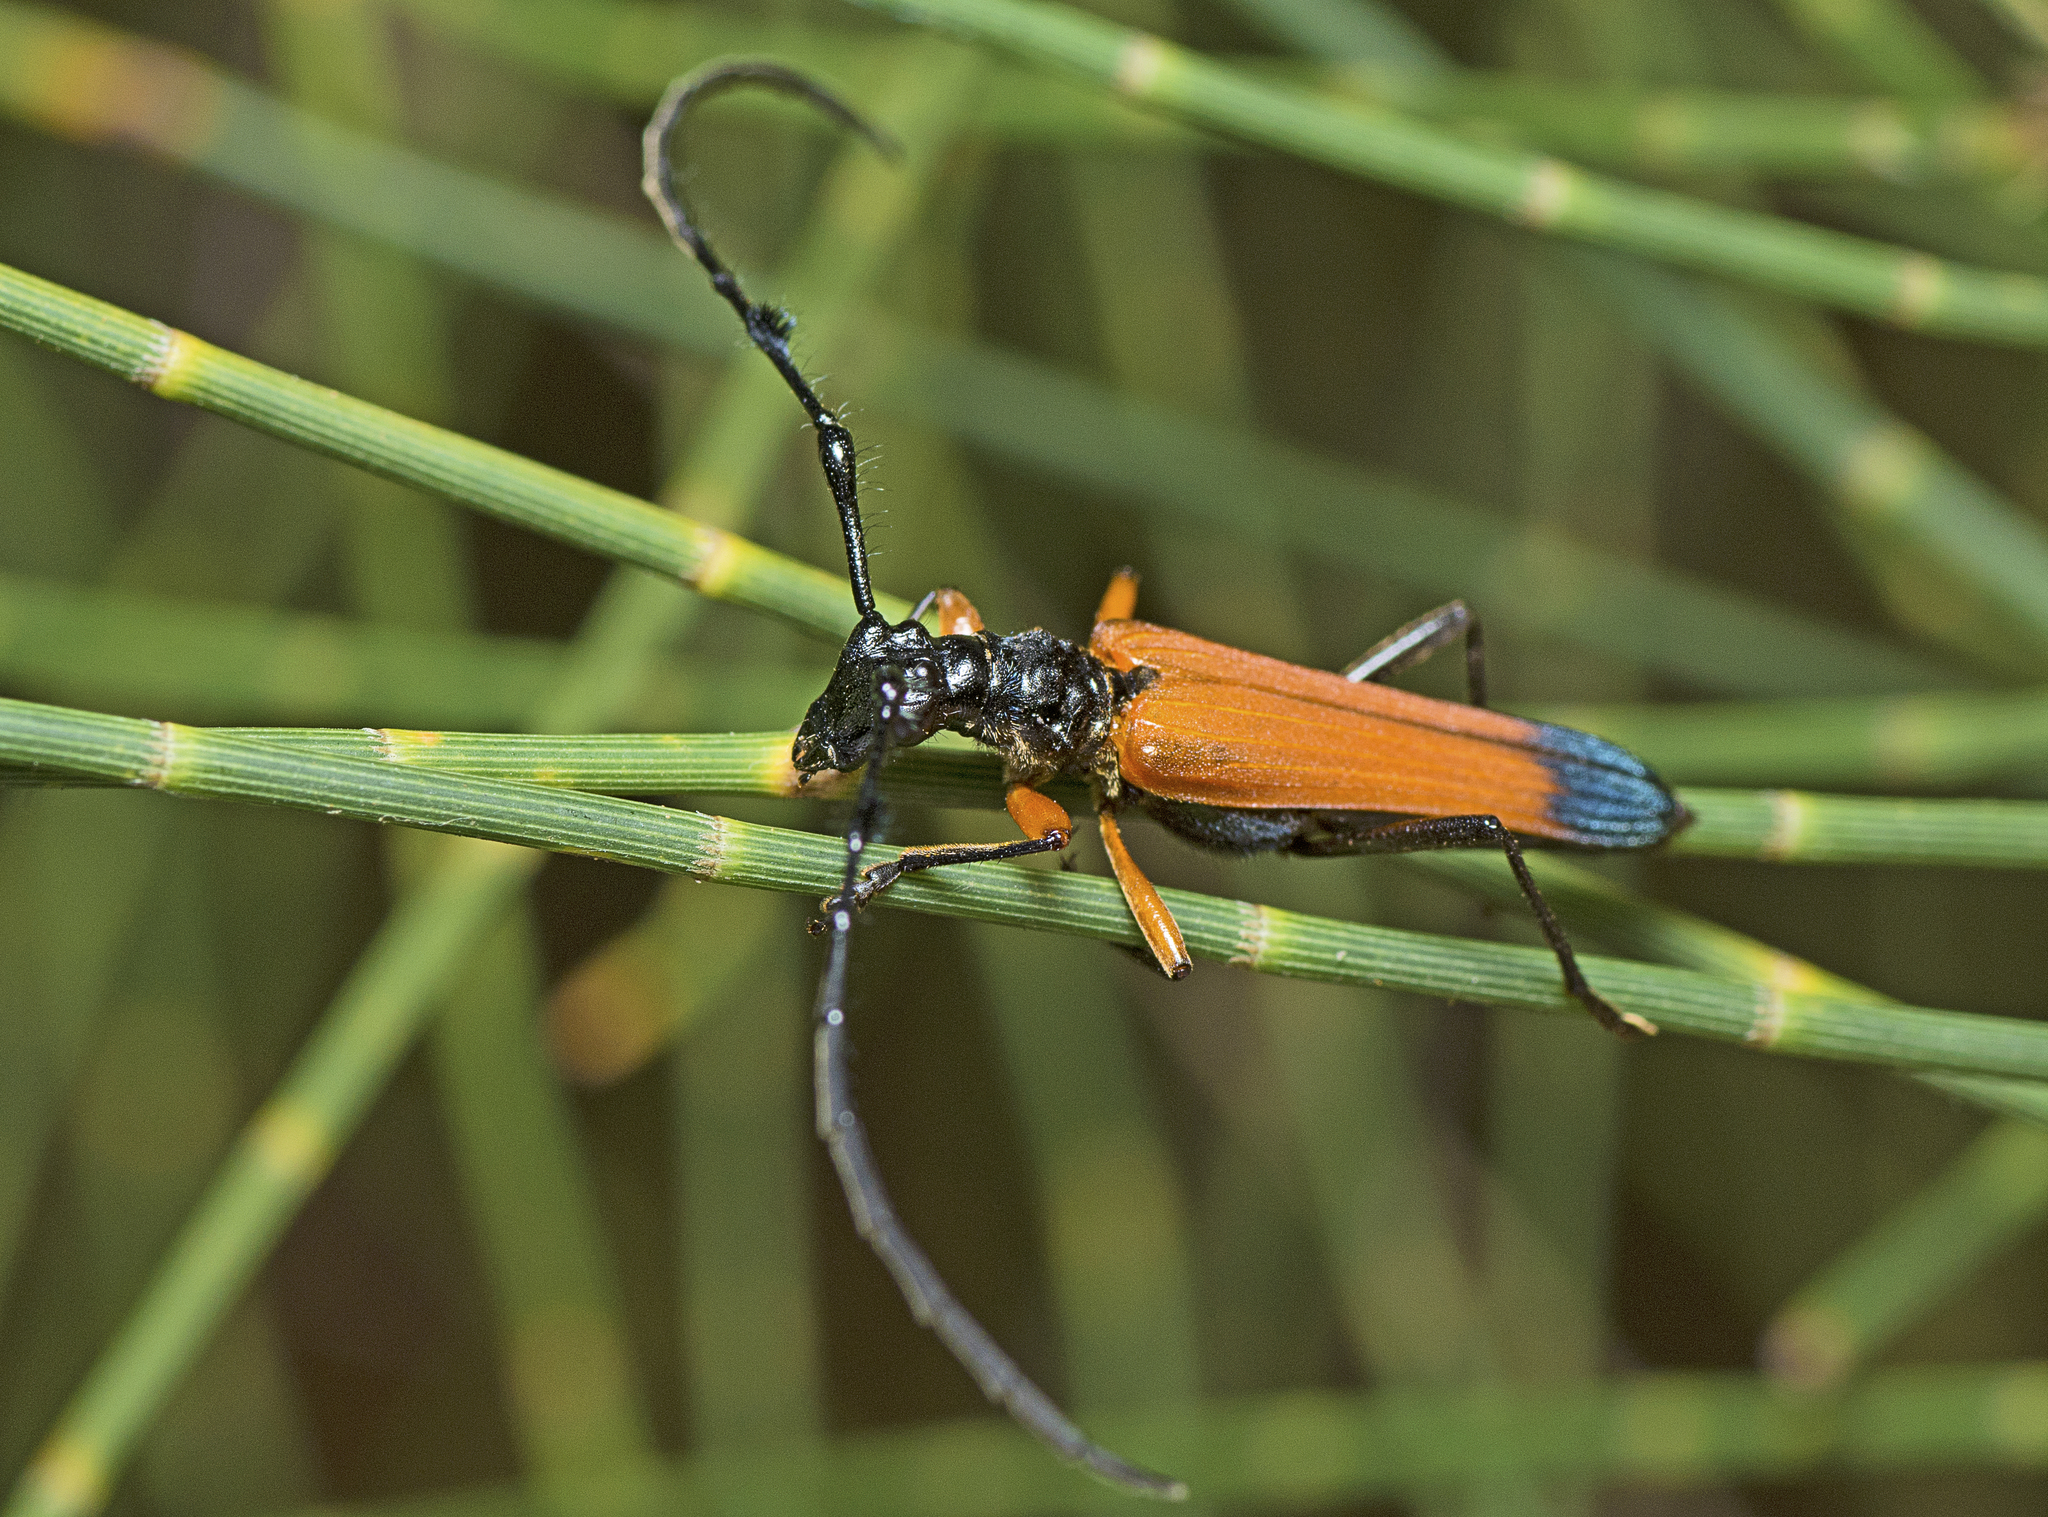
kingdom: Animalia
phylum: Arthropoda
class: Insecta
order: Coleoptera
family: Cerambycidae
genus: Tritocosmia
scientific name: Tritocosmia atricilla
